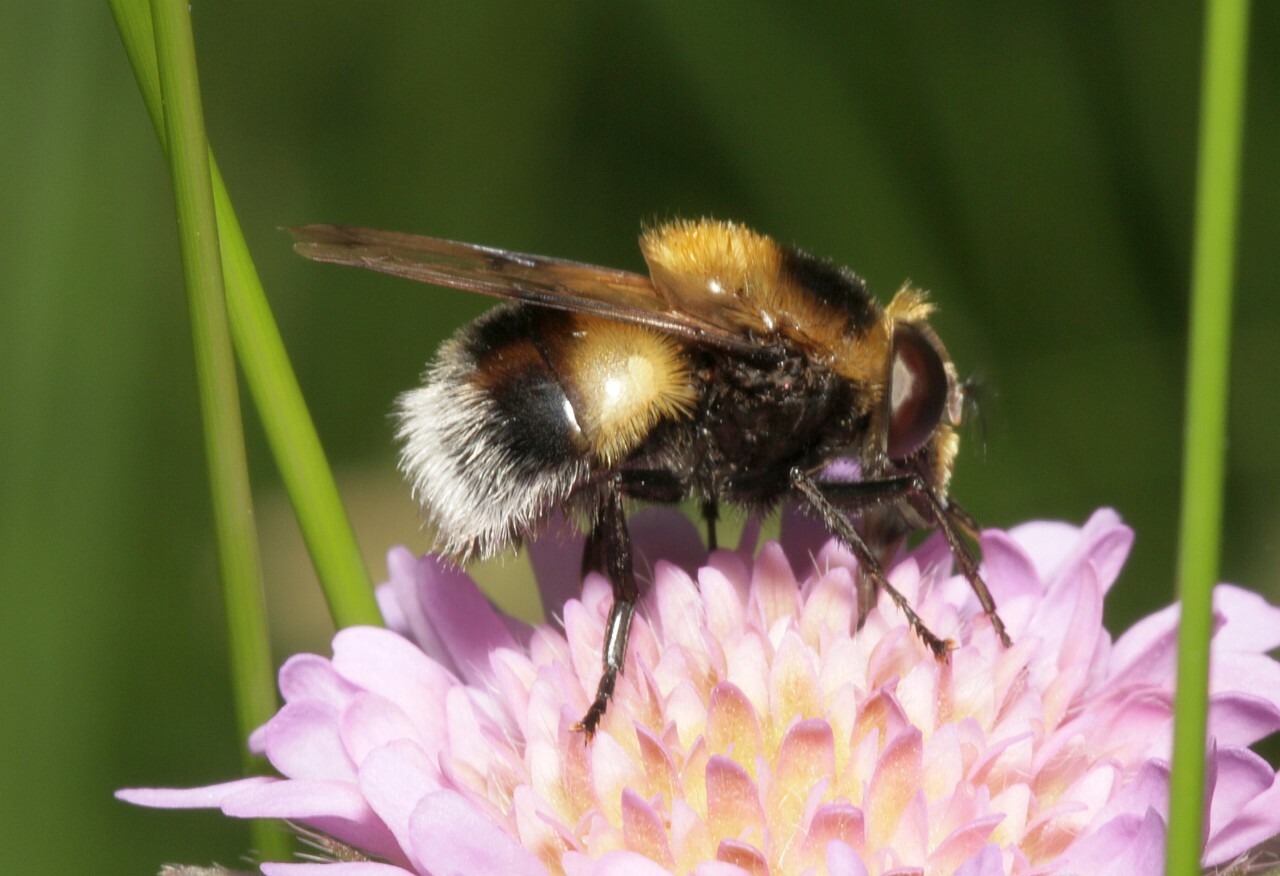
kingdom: Animalia
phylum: Arthropoda
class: Insecta
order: Diptera
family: Syrphidae
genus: Volucella
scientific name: Volucella bombylans
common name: Bumble bee hover fly
